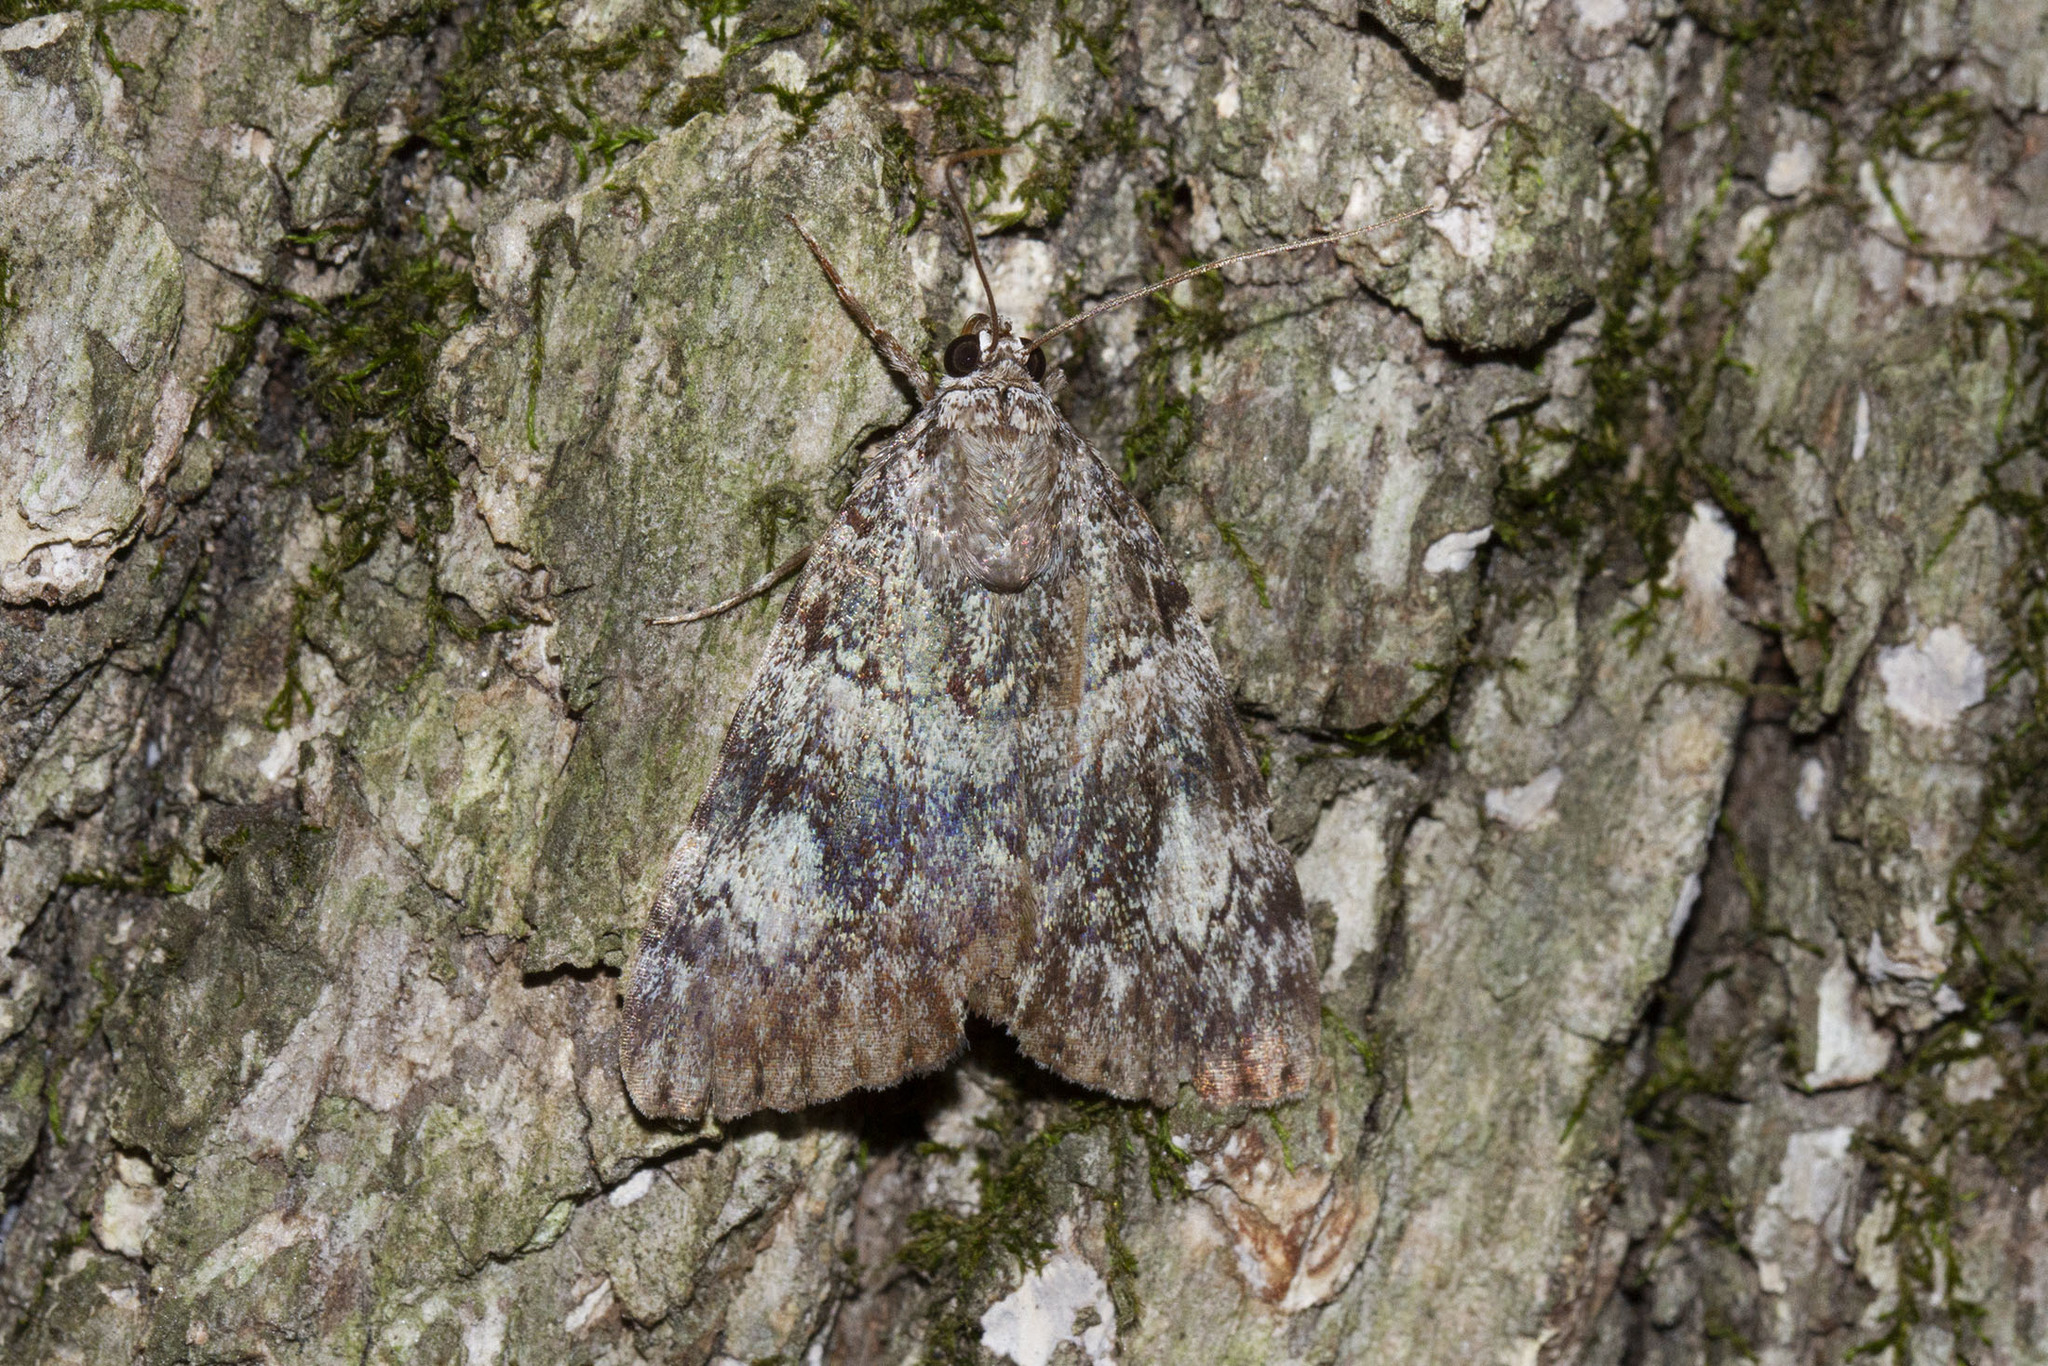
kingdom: Animalia
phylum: Arthropoda
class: Insecta
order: Lepidoptera
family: Erebidae
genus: Catocala
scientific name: Catocala lineella
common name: Little lined underwing
